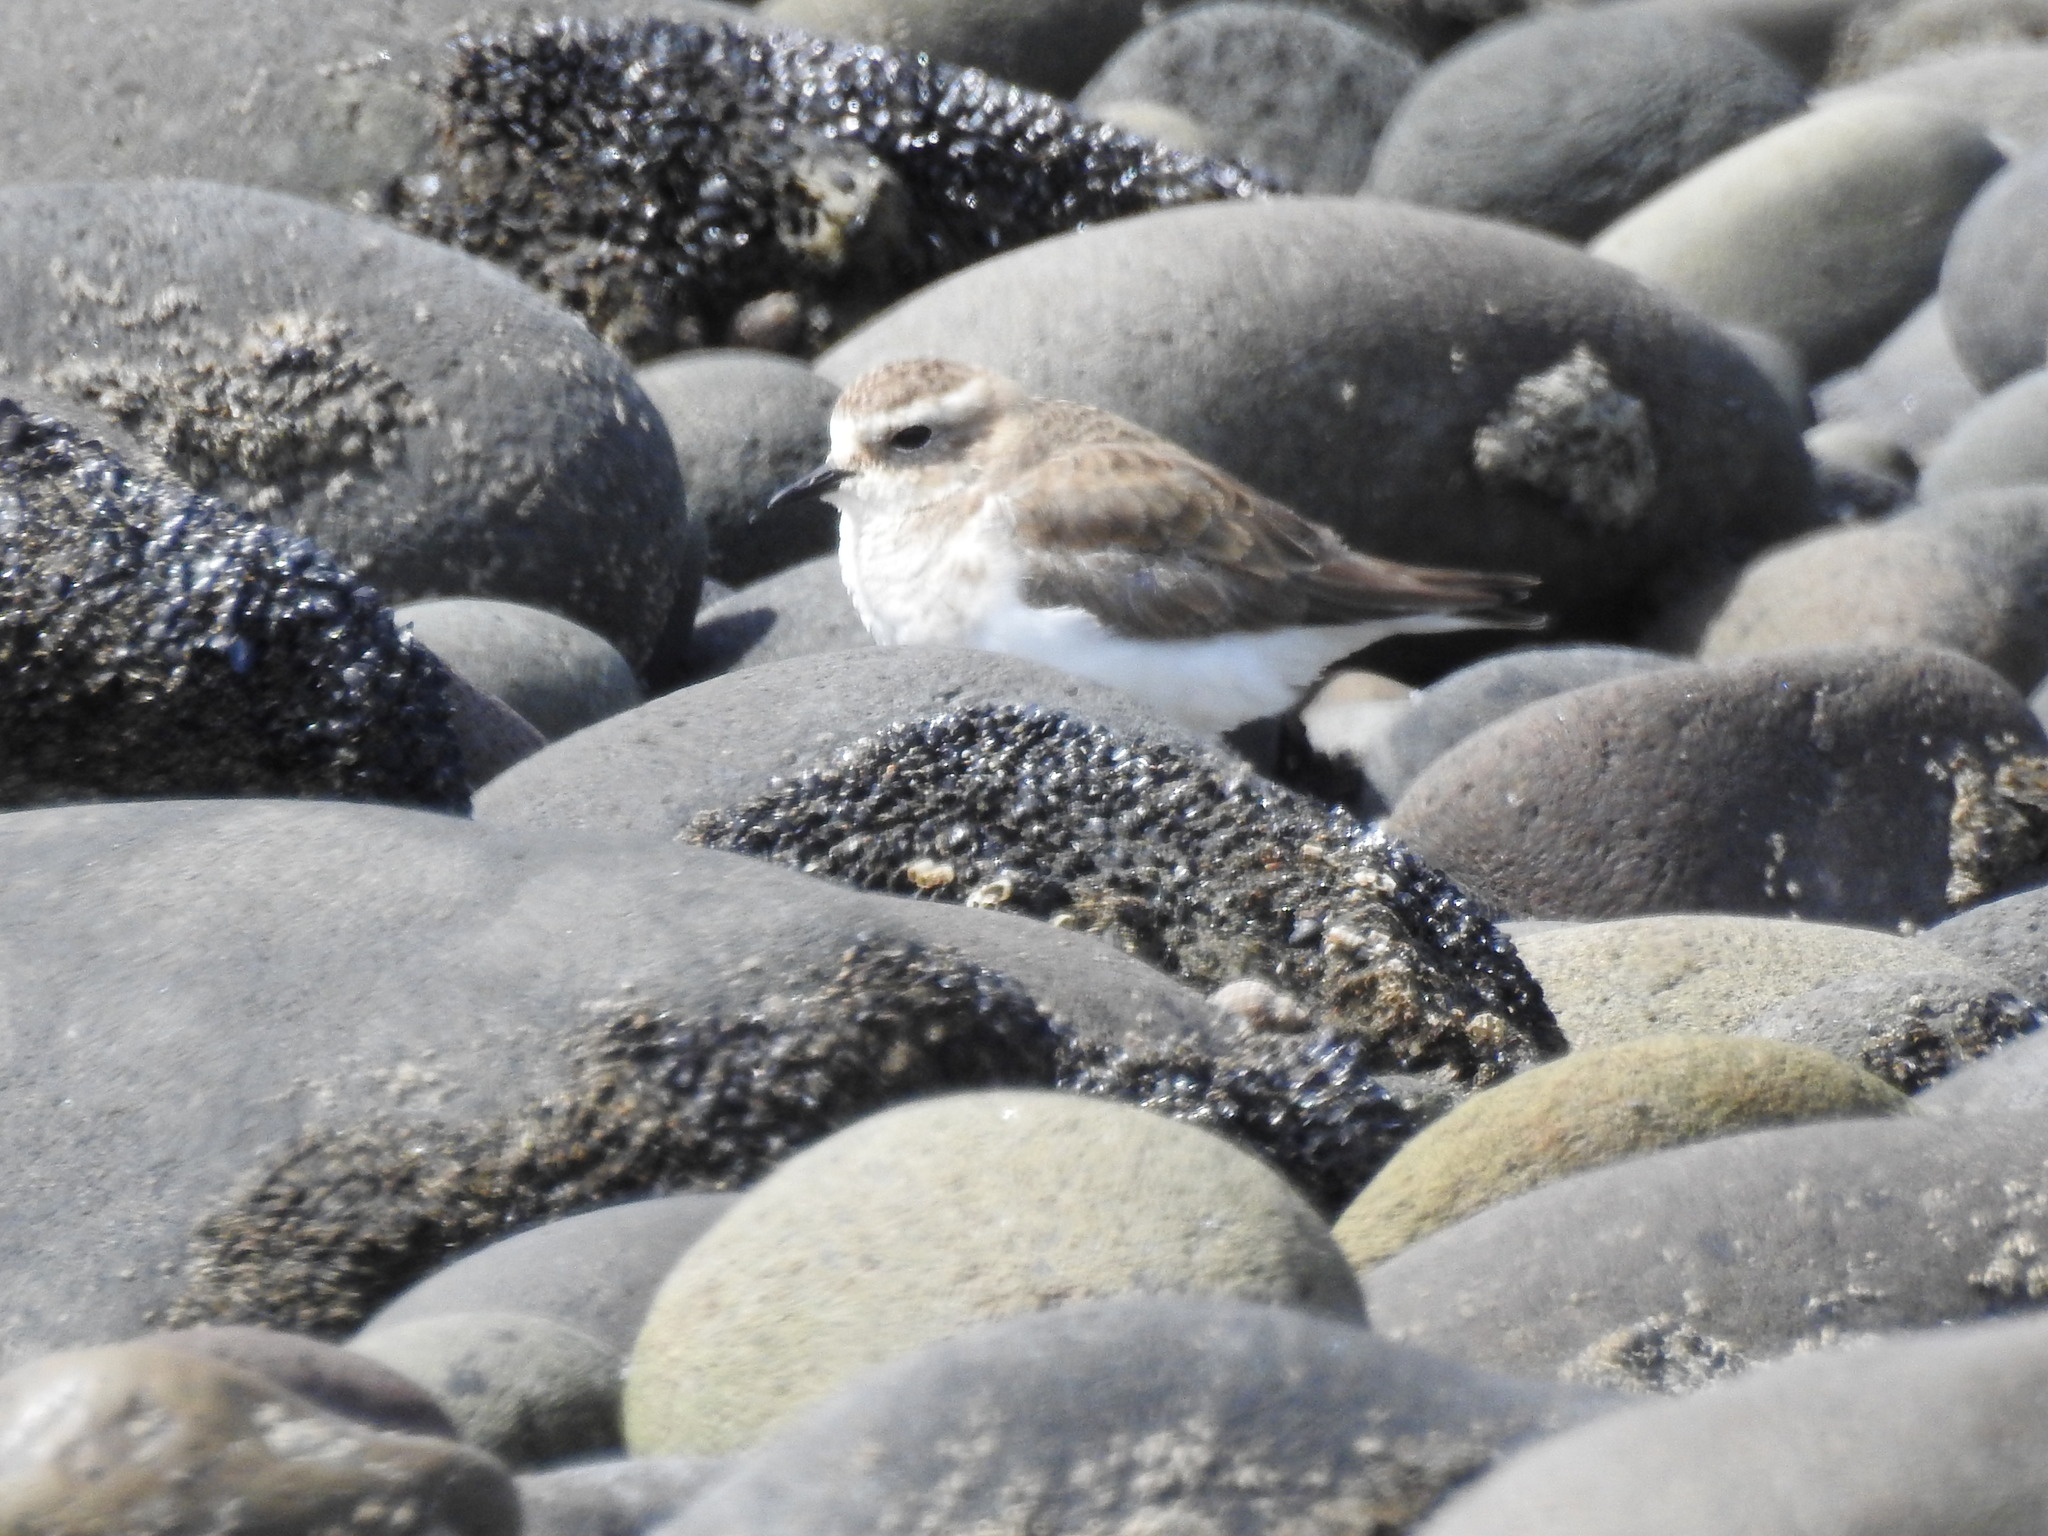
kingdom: Animalia
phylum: Chordata
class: Aves
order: Charadriiformes
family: Charadriidae
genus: Anarhynchus
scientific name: Anarhynchus
